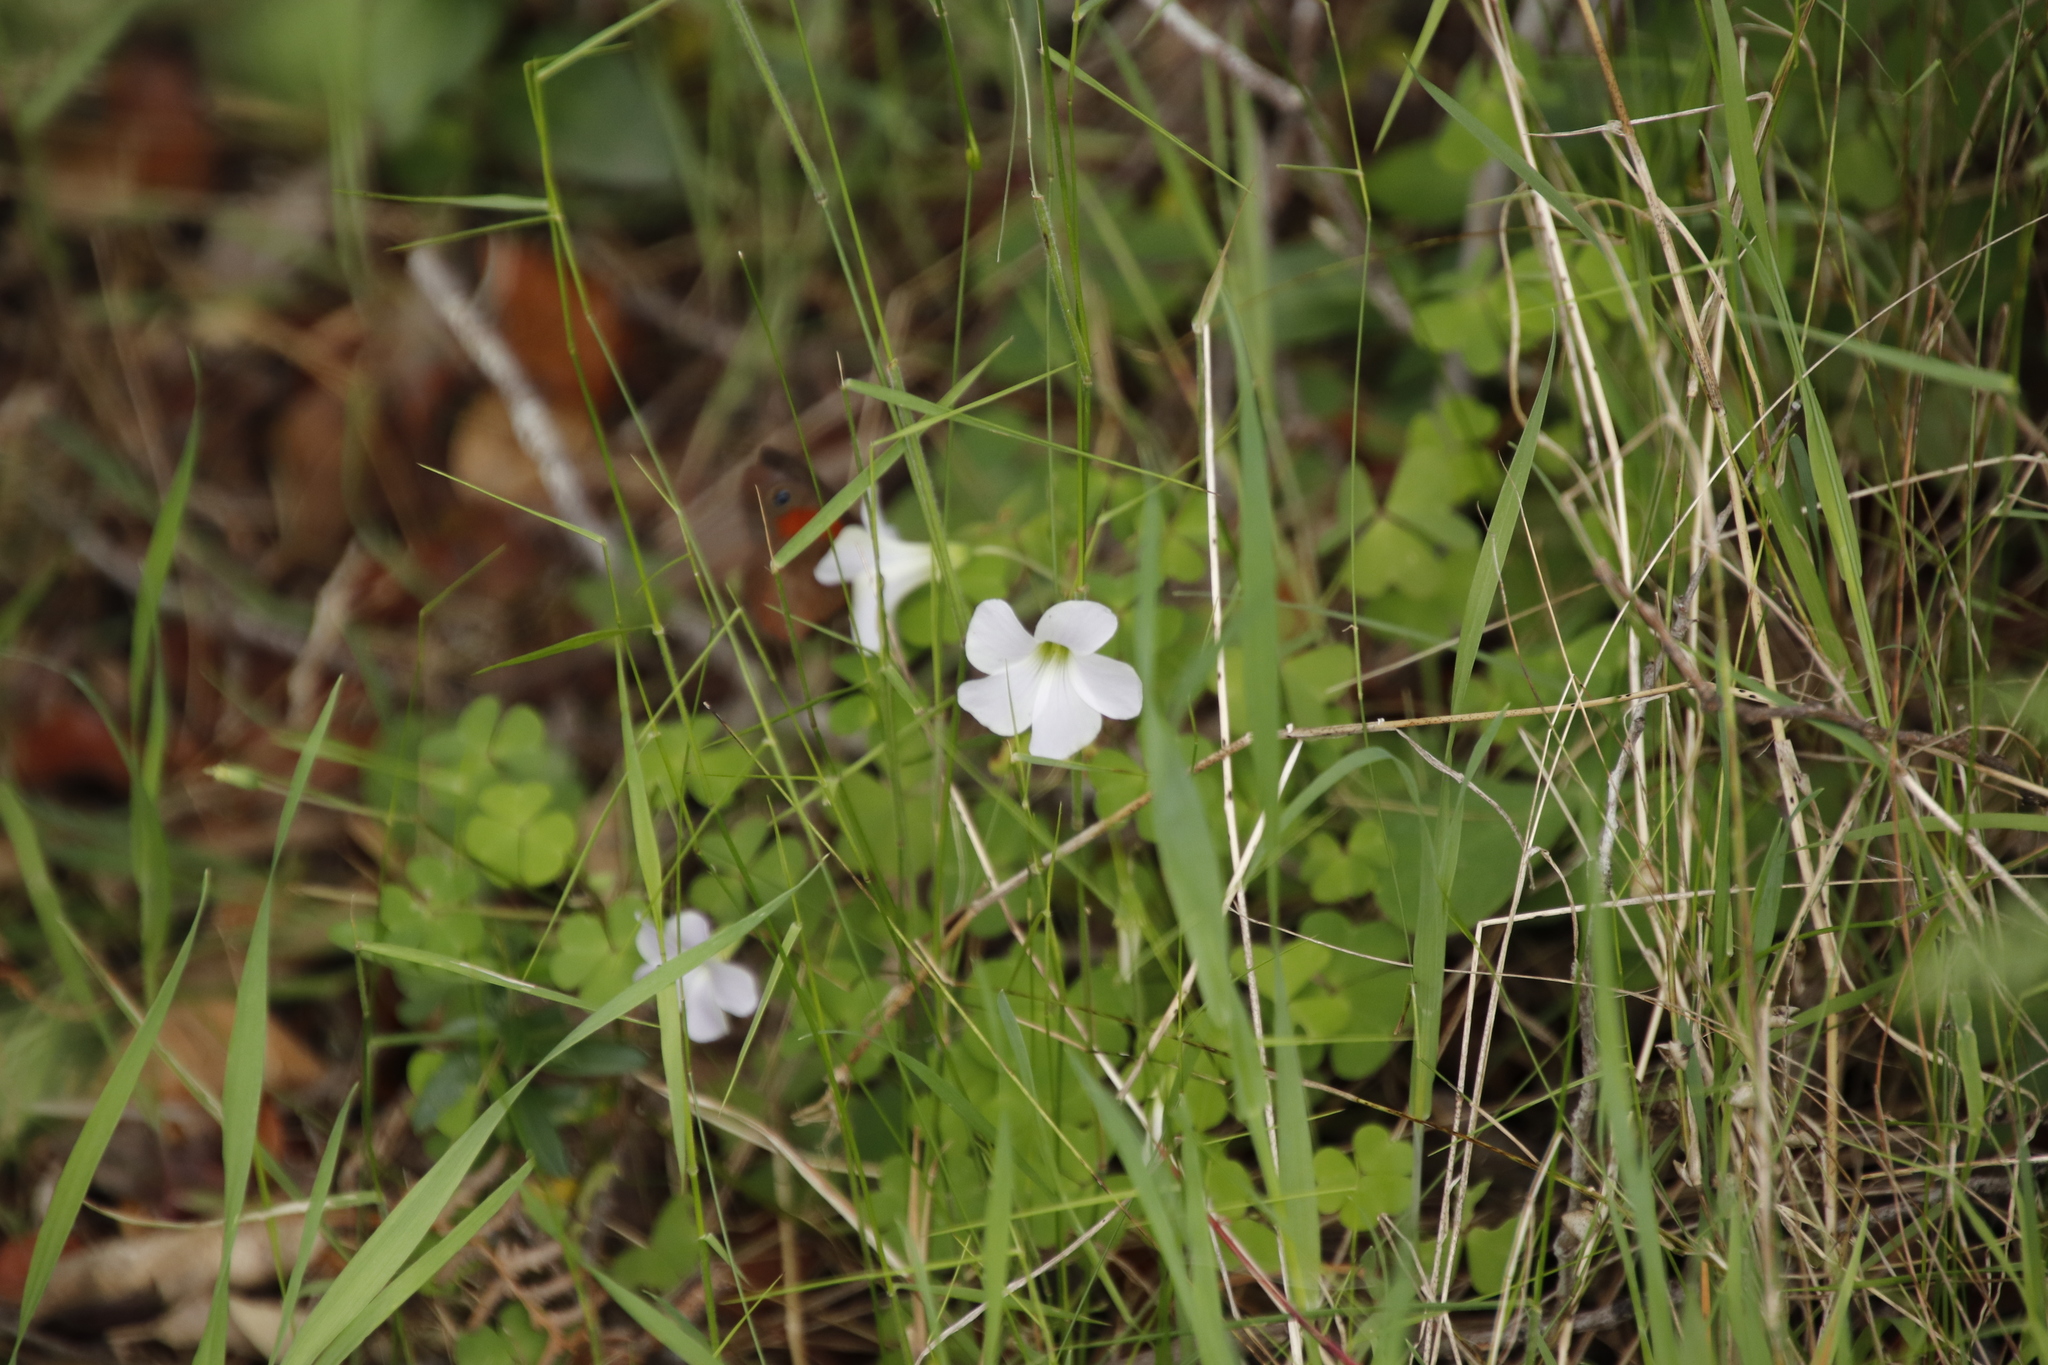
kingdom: Plantae
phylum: Tracheophyta
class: Magnoliopsida
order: Oxalidales
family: Oxalidaceae
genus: Oxalis
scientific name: Oxalis incarnata
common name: Pale pink-sorrel
